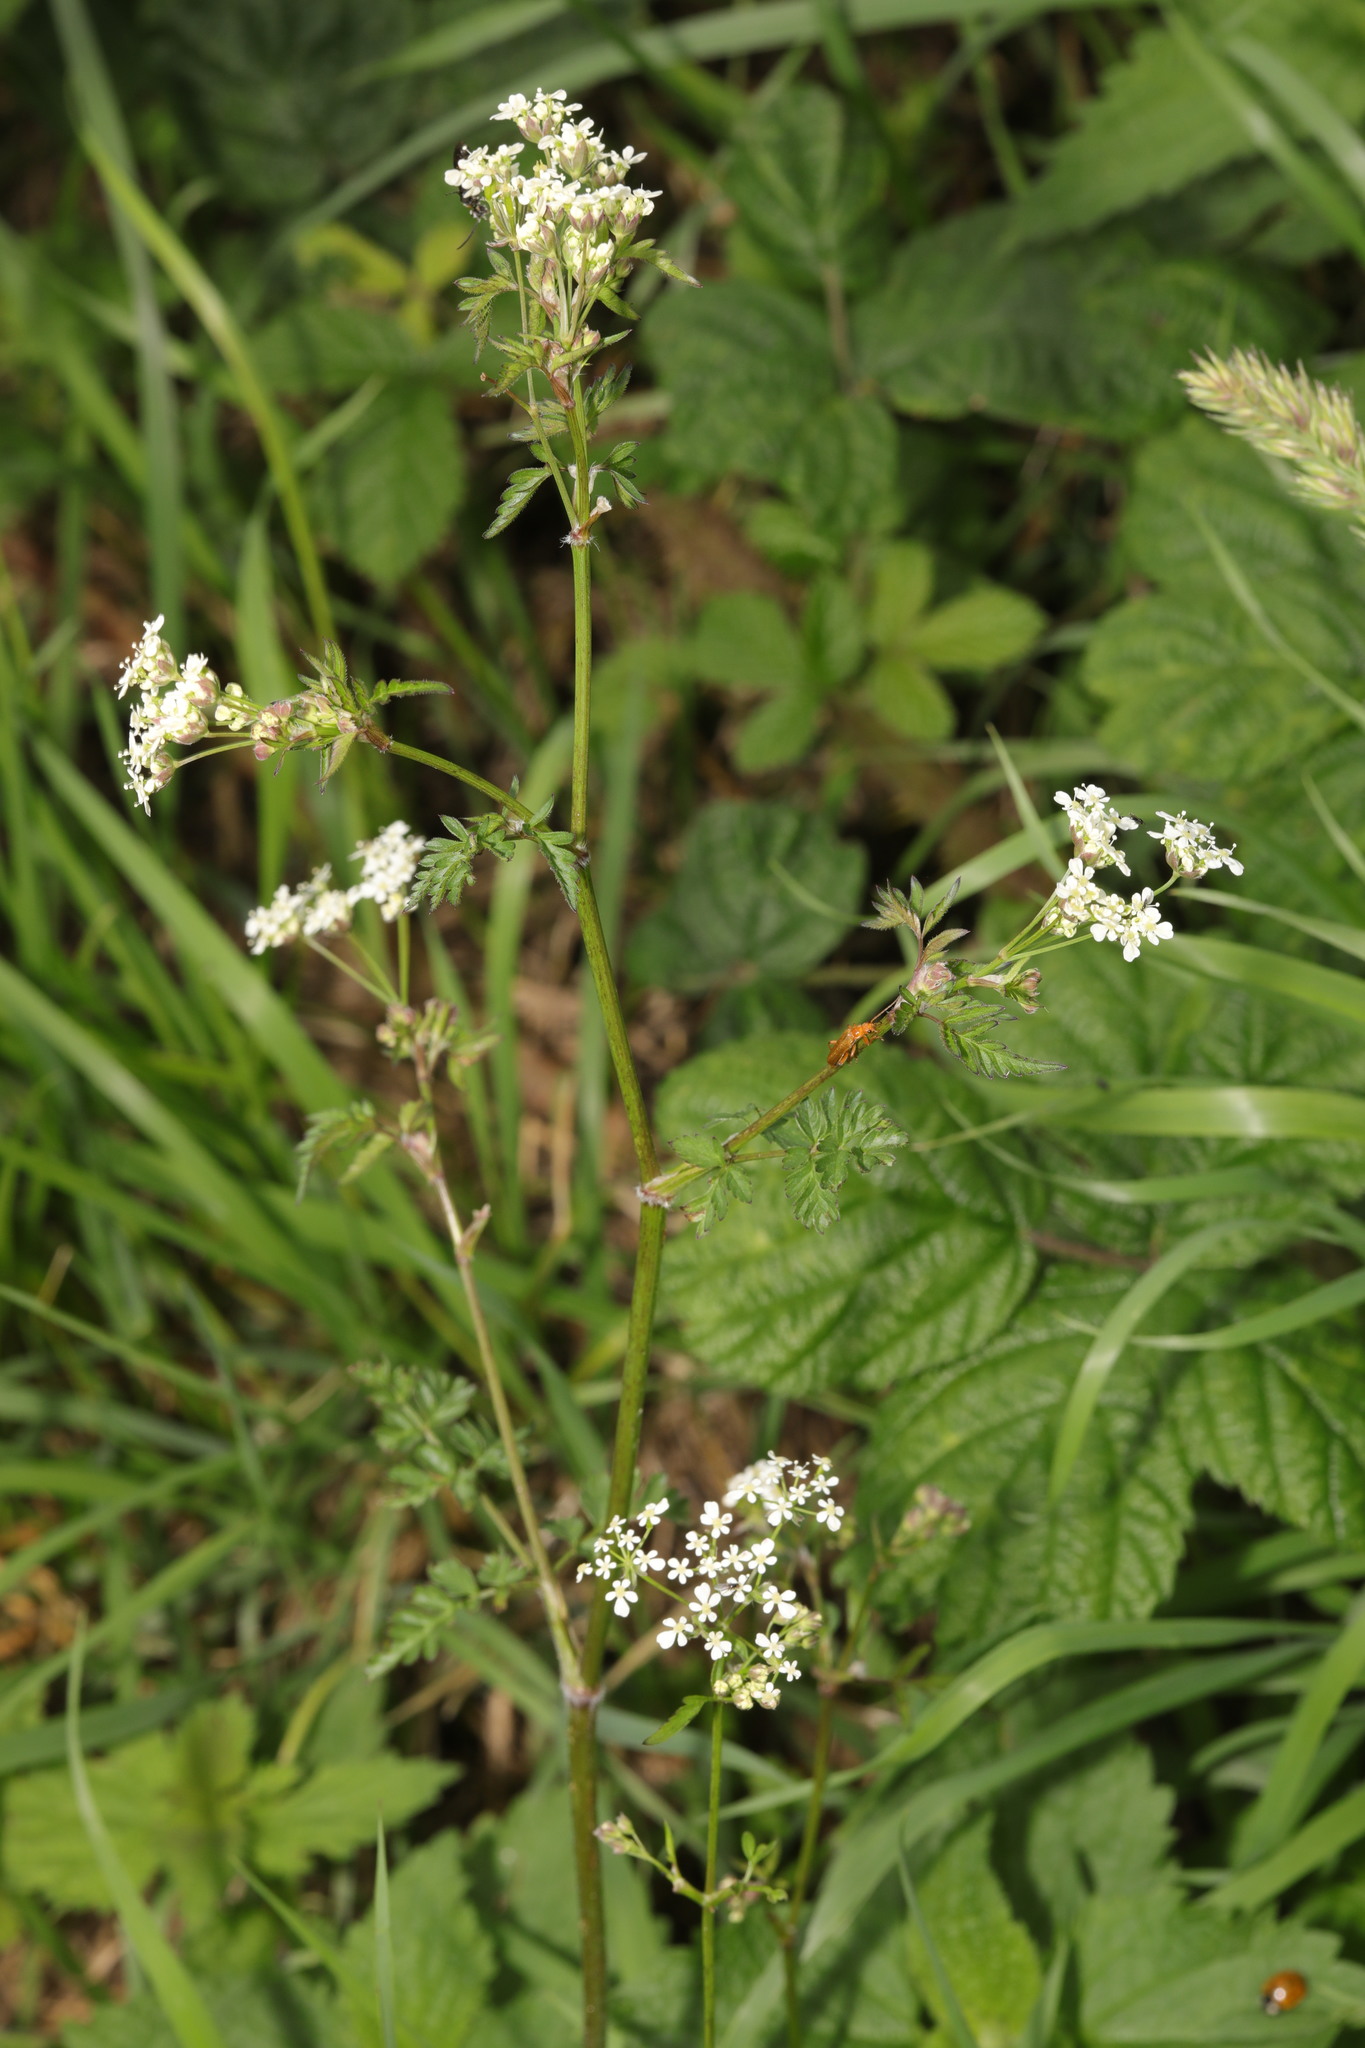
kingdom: Plantae
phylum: Tracheophyta
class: Magnoliopsida
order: Apiales
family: Apiaceae
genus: Anthriscus
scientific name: Anthriscus sylvestris
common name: Cow parsley
